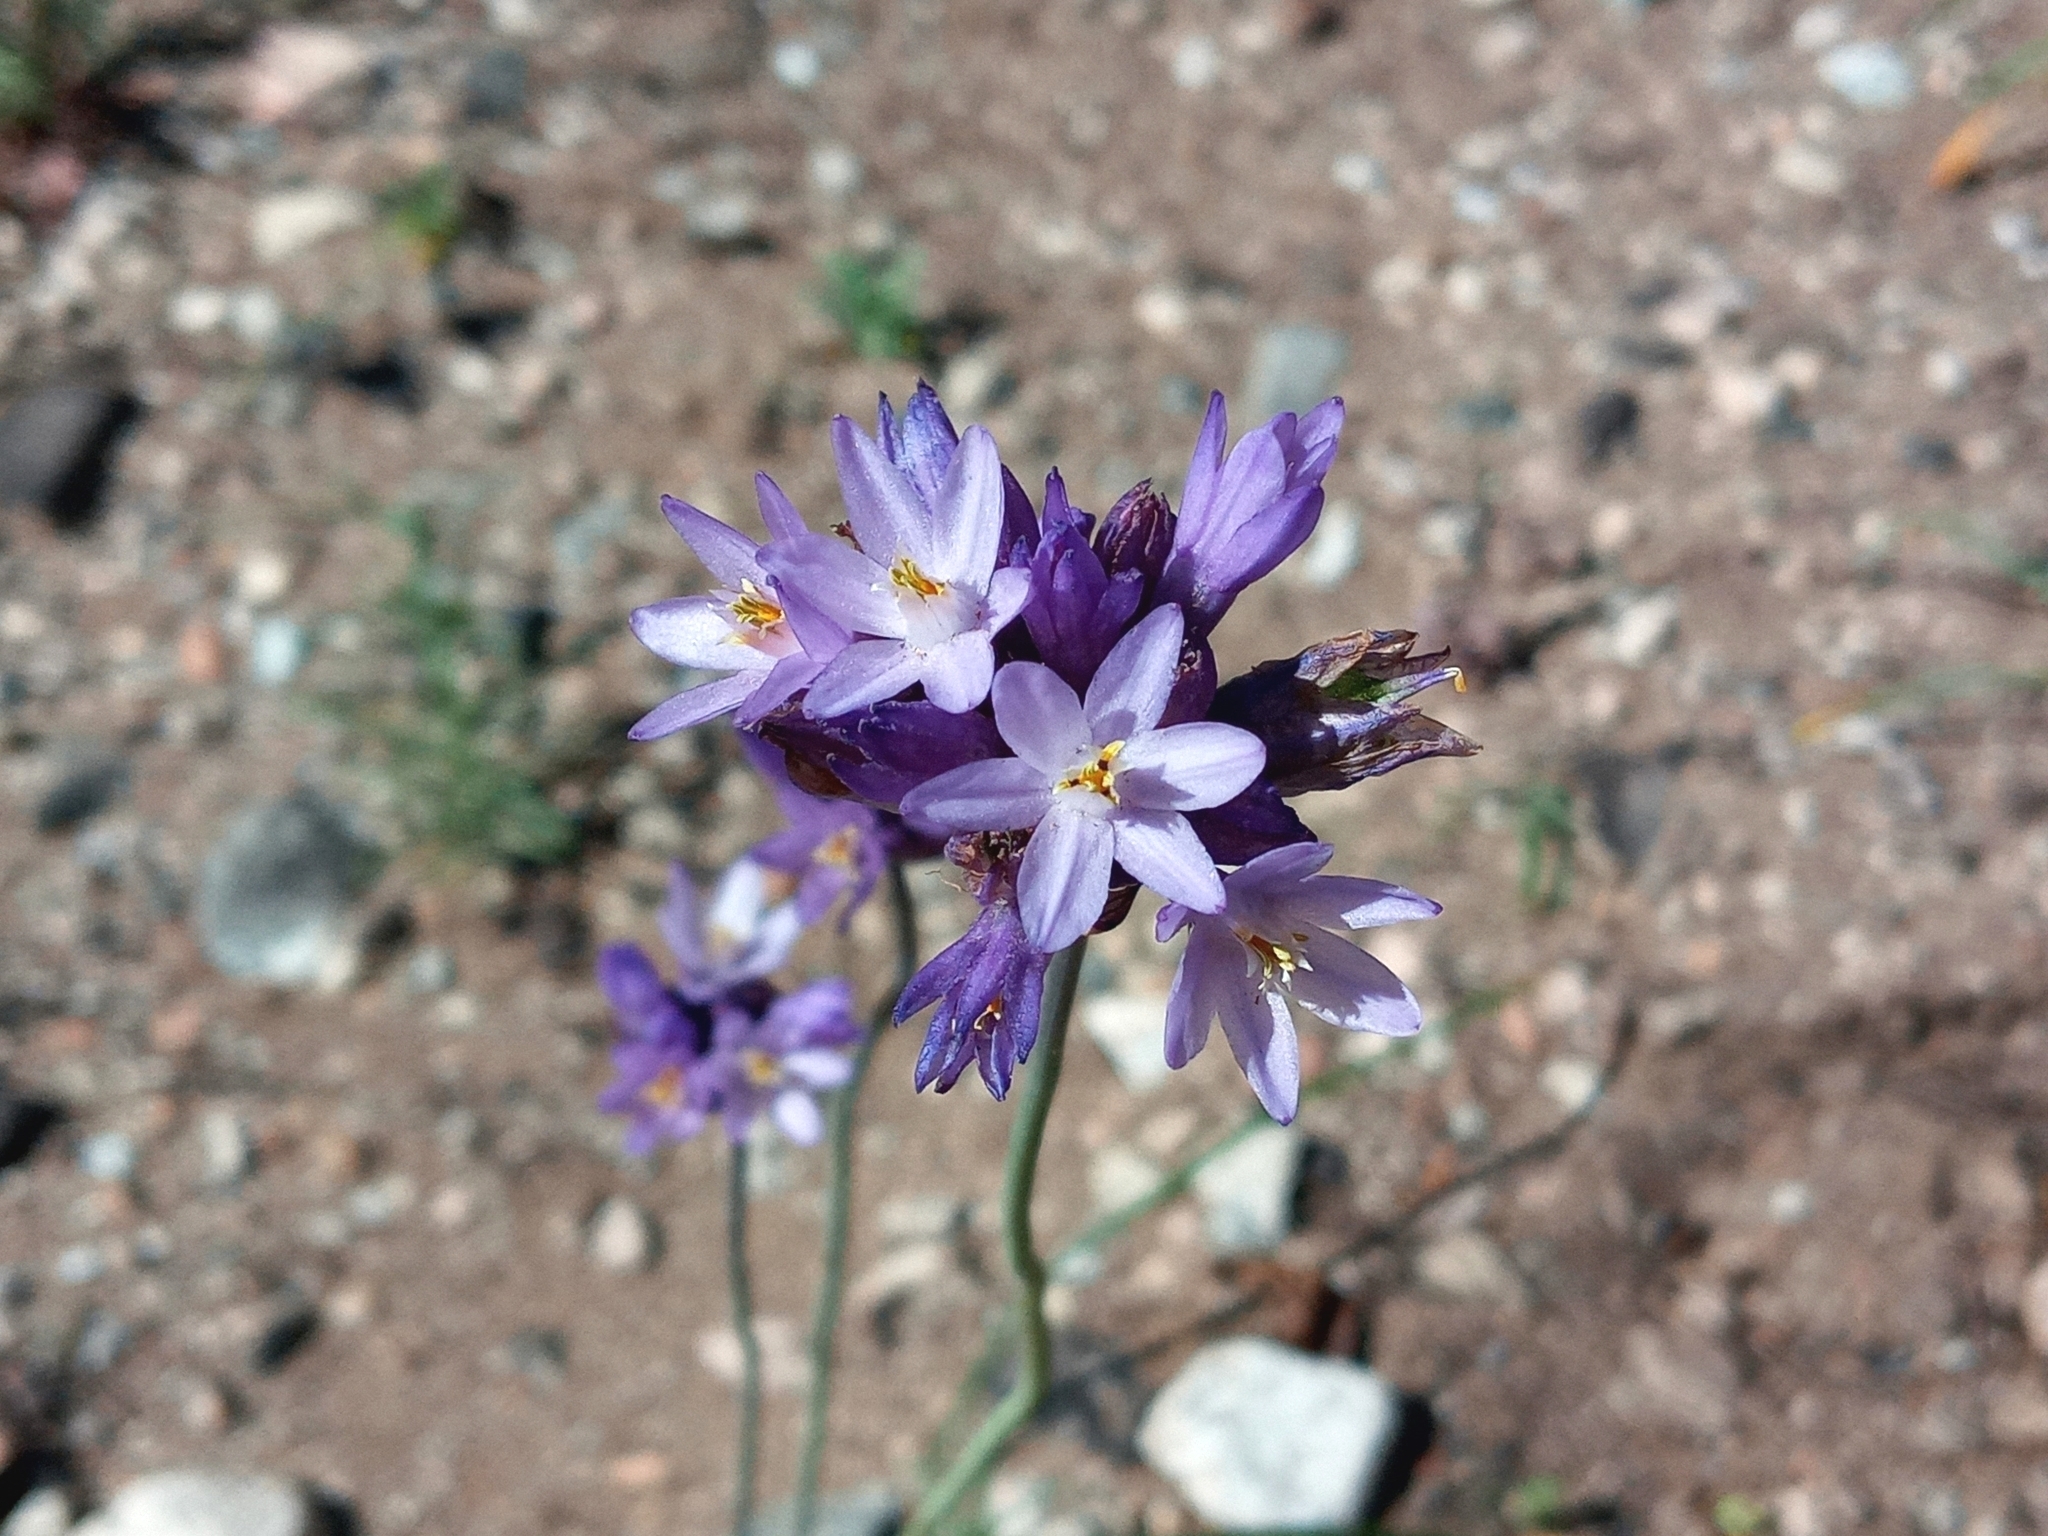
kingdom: Plantae
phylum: Tracheophyta
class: Liliopsida
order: Asparagales
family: Asparagaceae
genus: Dipterostemon
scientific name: Dipterostemon capitatus
